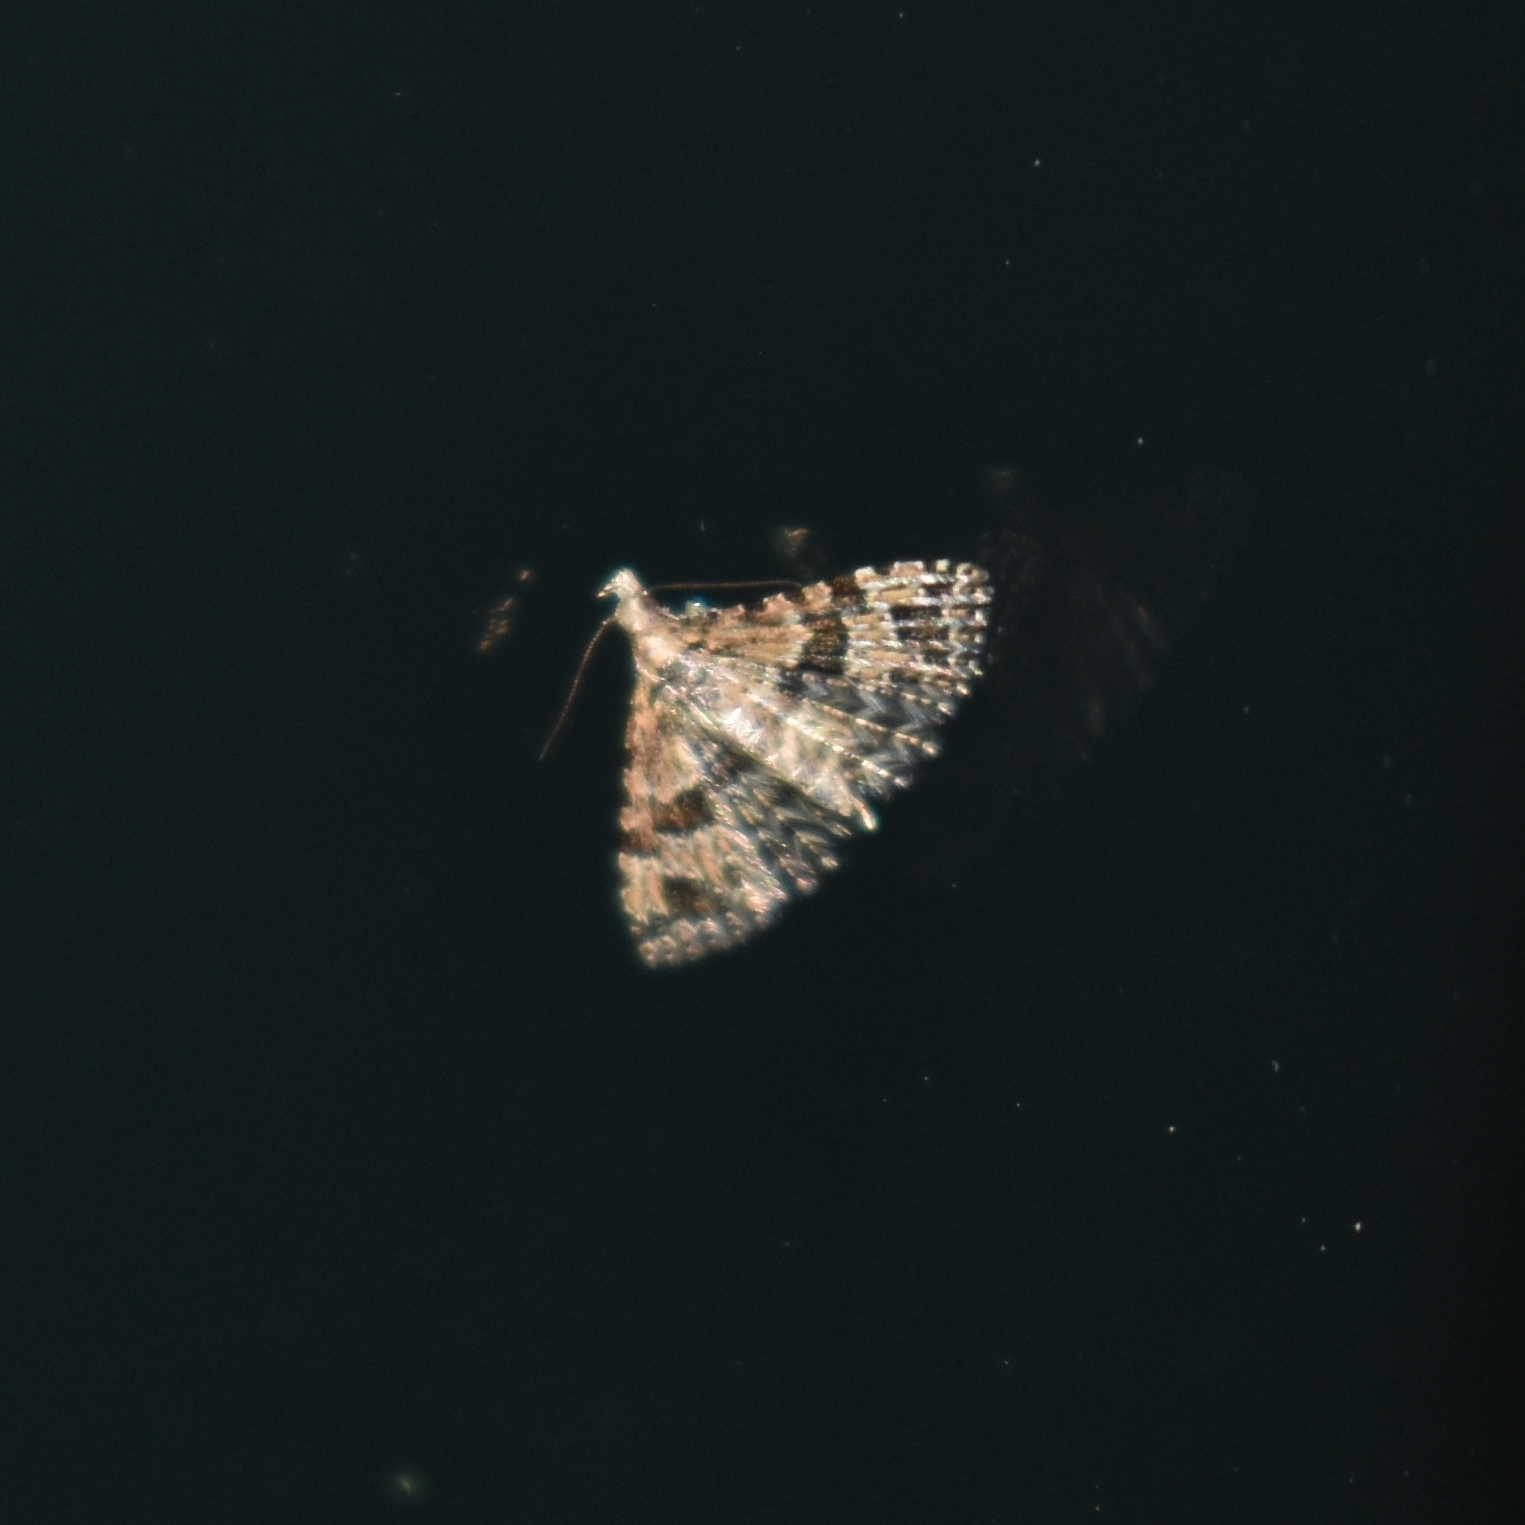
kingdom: Animalia
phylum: Arthropoda
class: Insecta
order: Lepidoptera
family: Alucitidae
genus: Alucita
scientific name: Alucita montana
